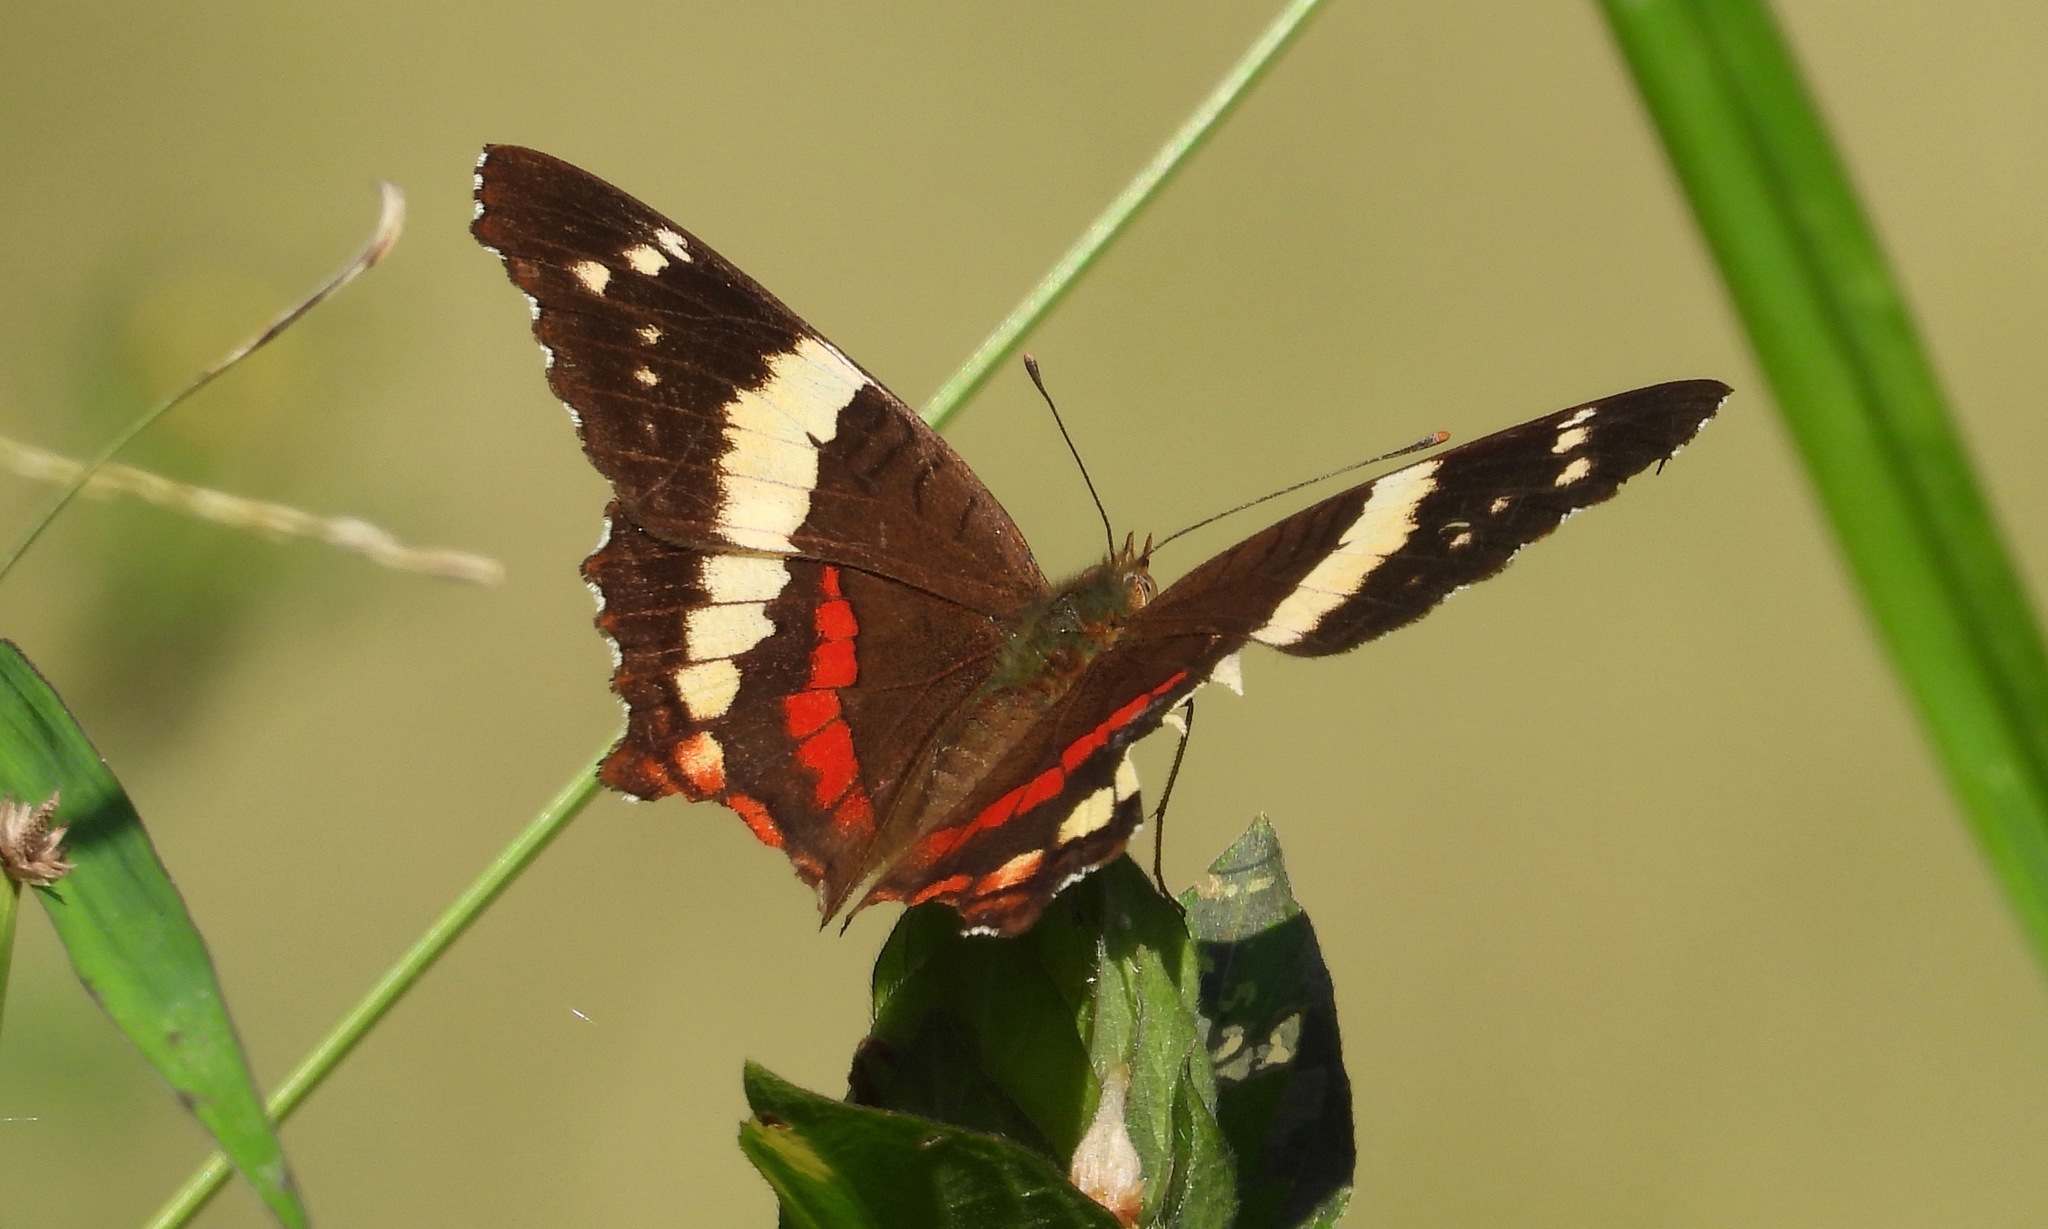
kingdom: Animalia
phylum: Arthropoda
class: Insecta
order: Lepidoptera
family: Nymphalidae
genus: Anartia
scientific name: Anartia fatima
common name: Banded peacock
